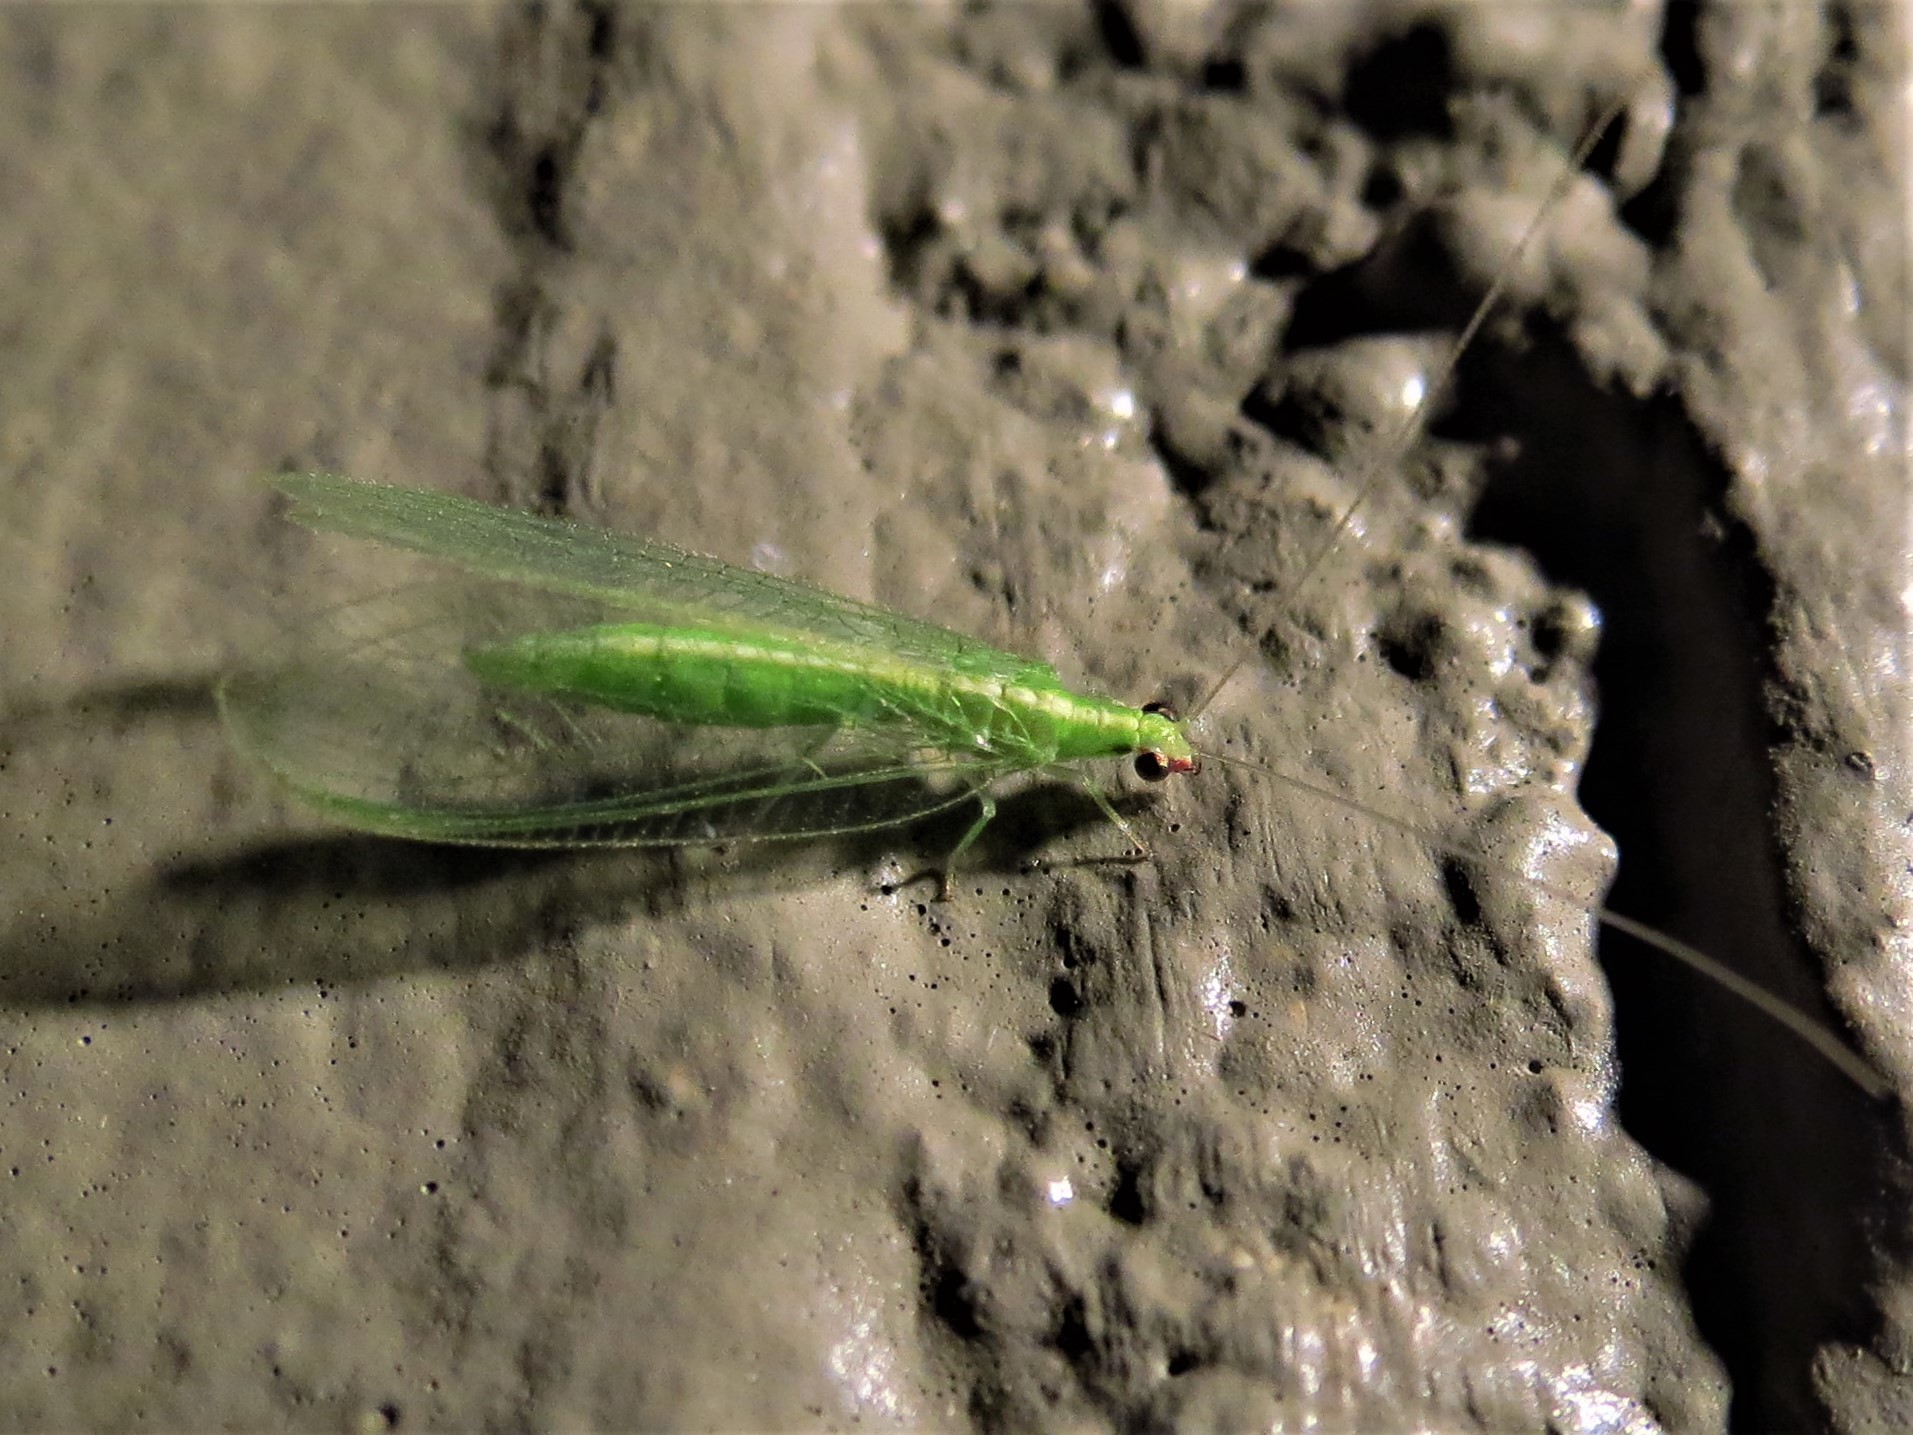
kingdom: Animalia
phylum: Arthropoda
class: Insecta
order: Neuroptera
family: Chrysopidae
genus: Chrysoperla
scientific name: Chrysoperla rufilabris
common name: Red-lipped green lacewing
